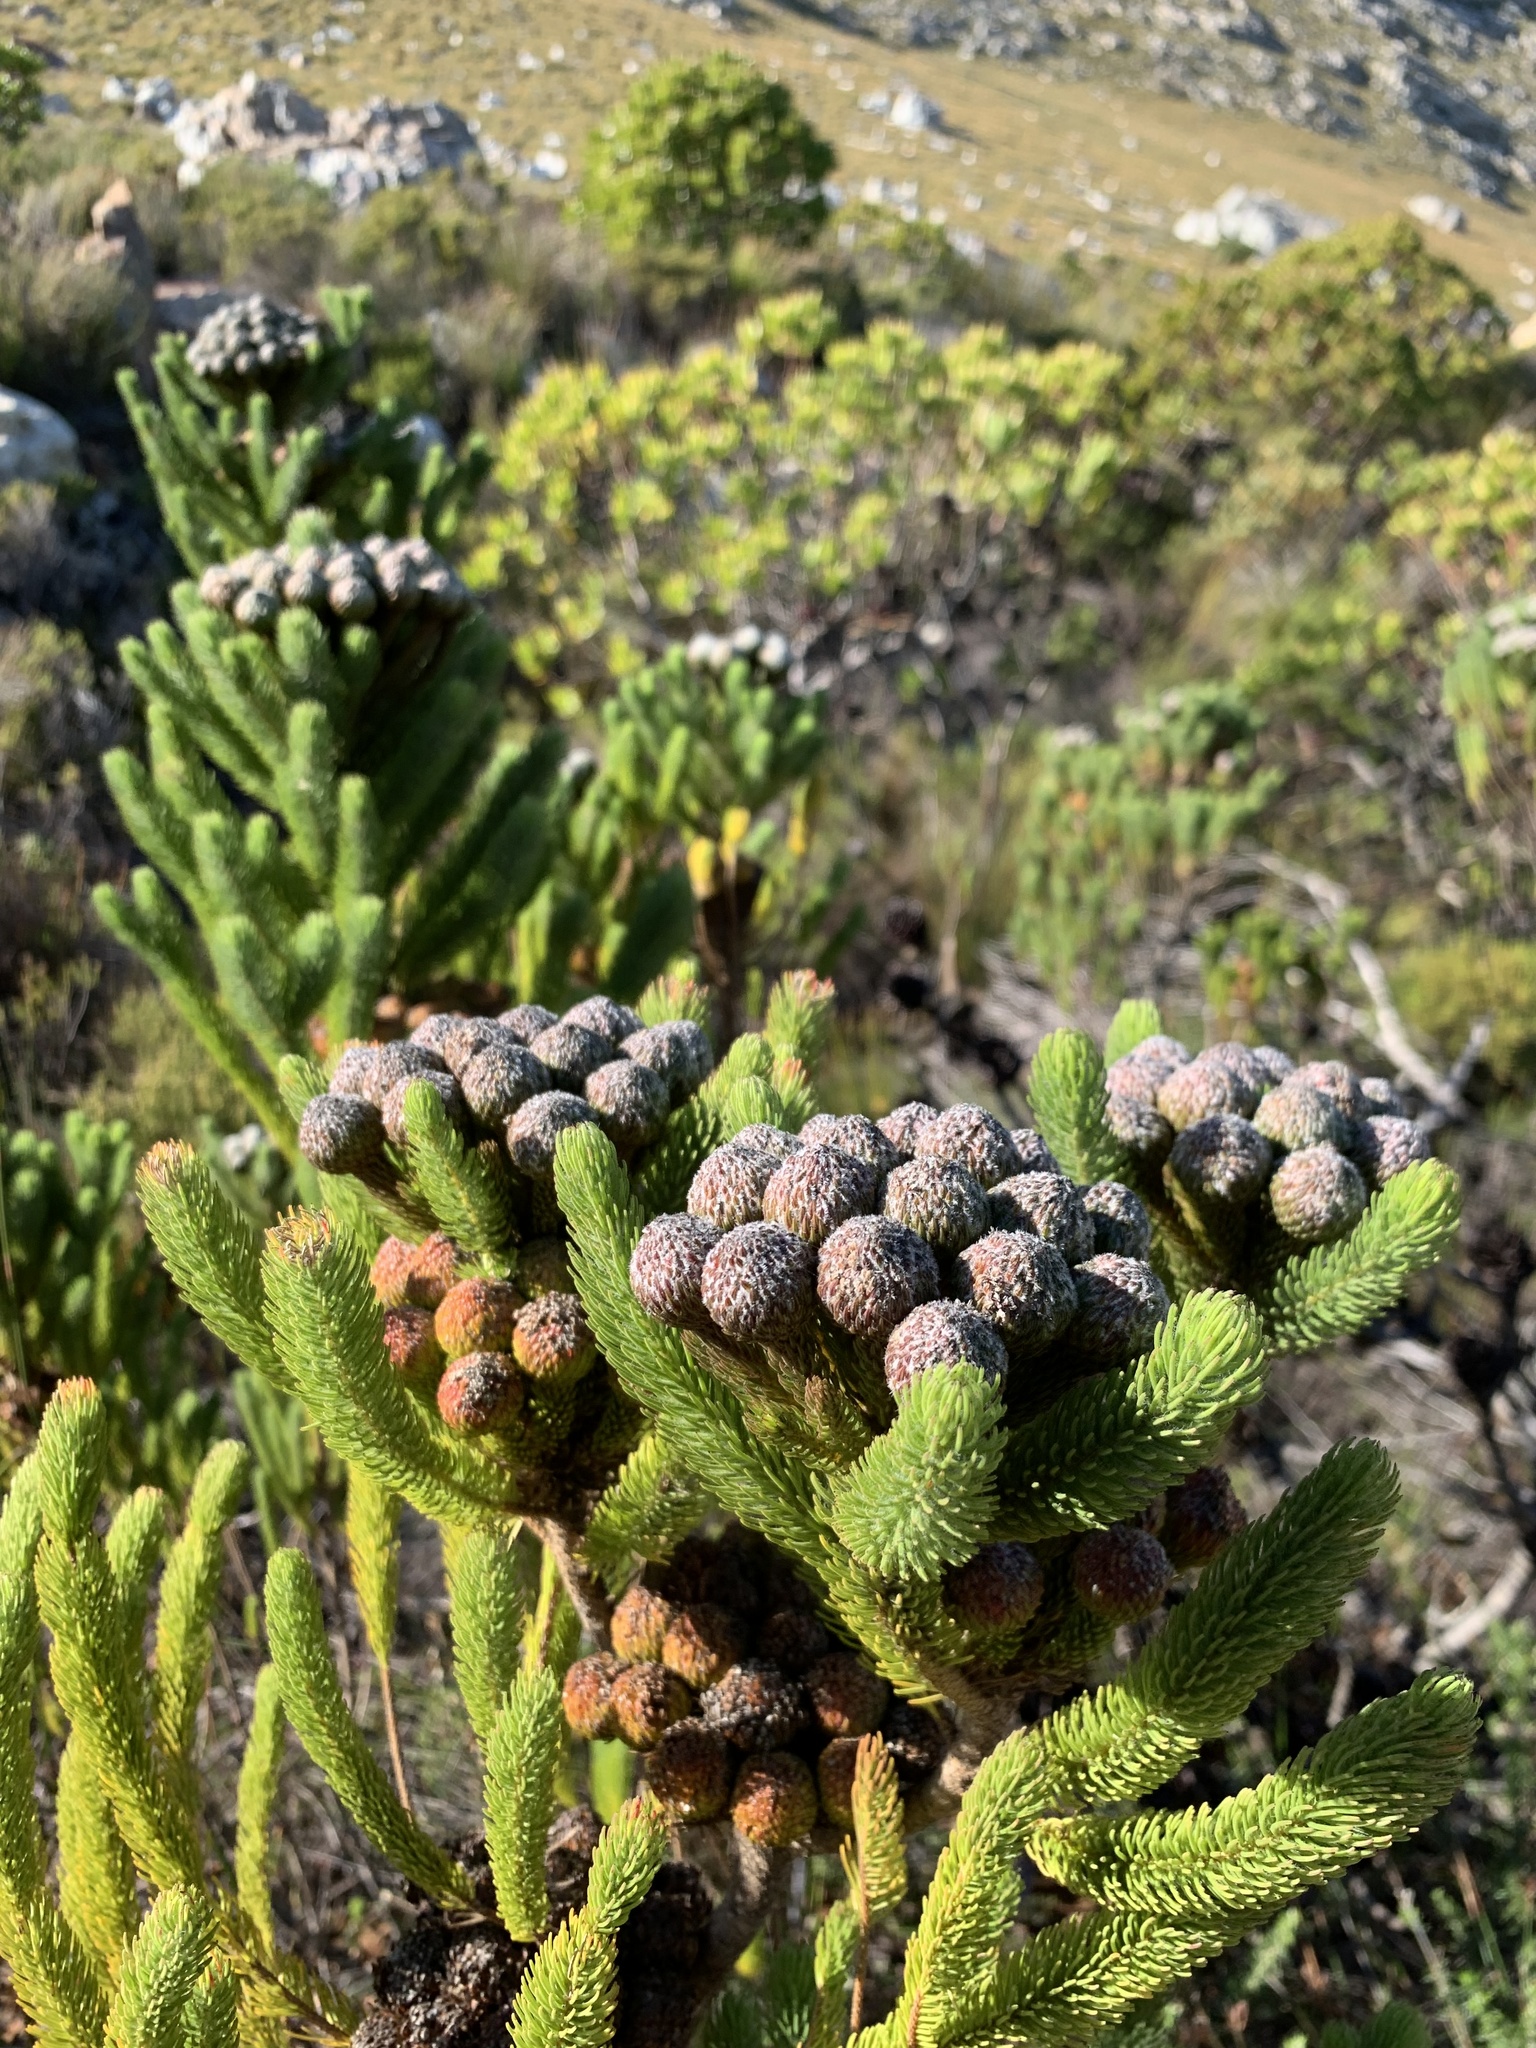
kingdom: Plantae
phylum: Tracheophyta
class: Magnoliopsida
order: Bruniales
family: Bruniaceae
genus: Berzelia
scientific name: Berzelia albiflora
